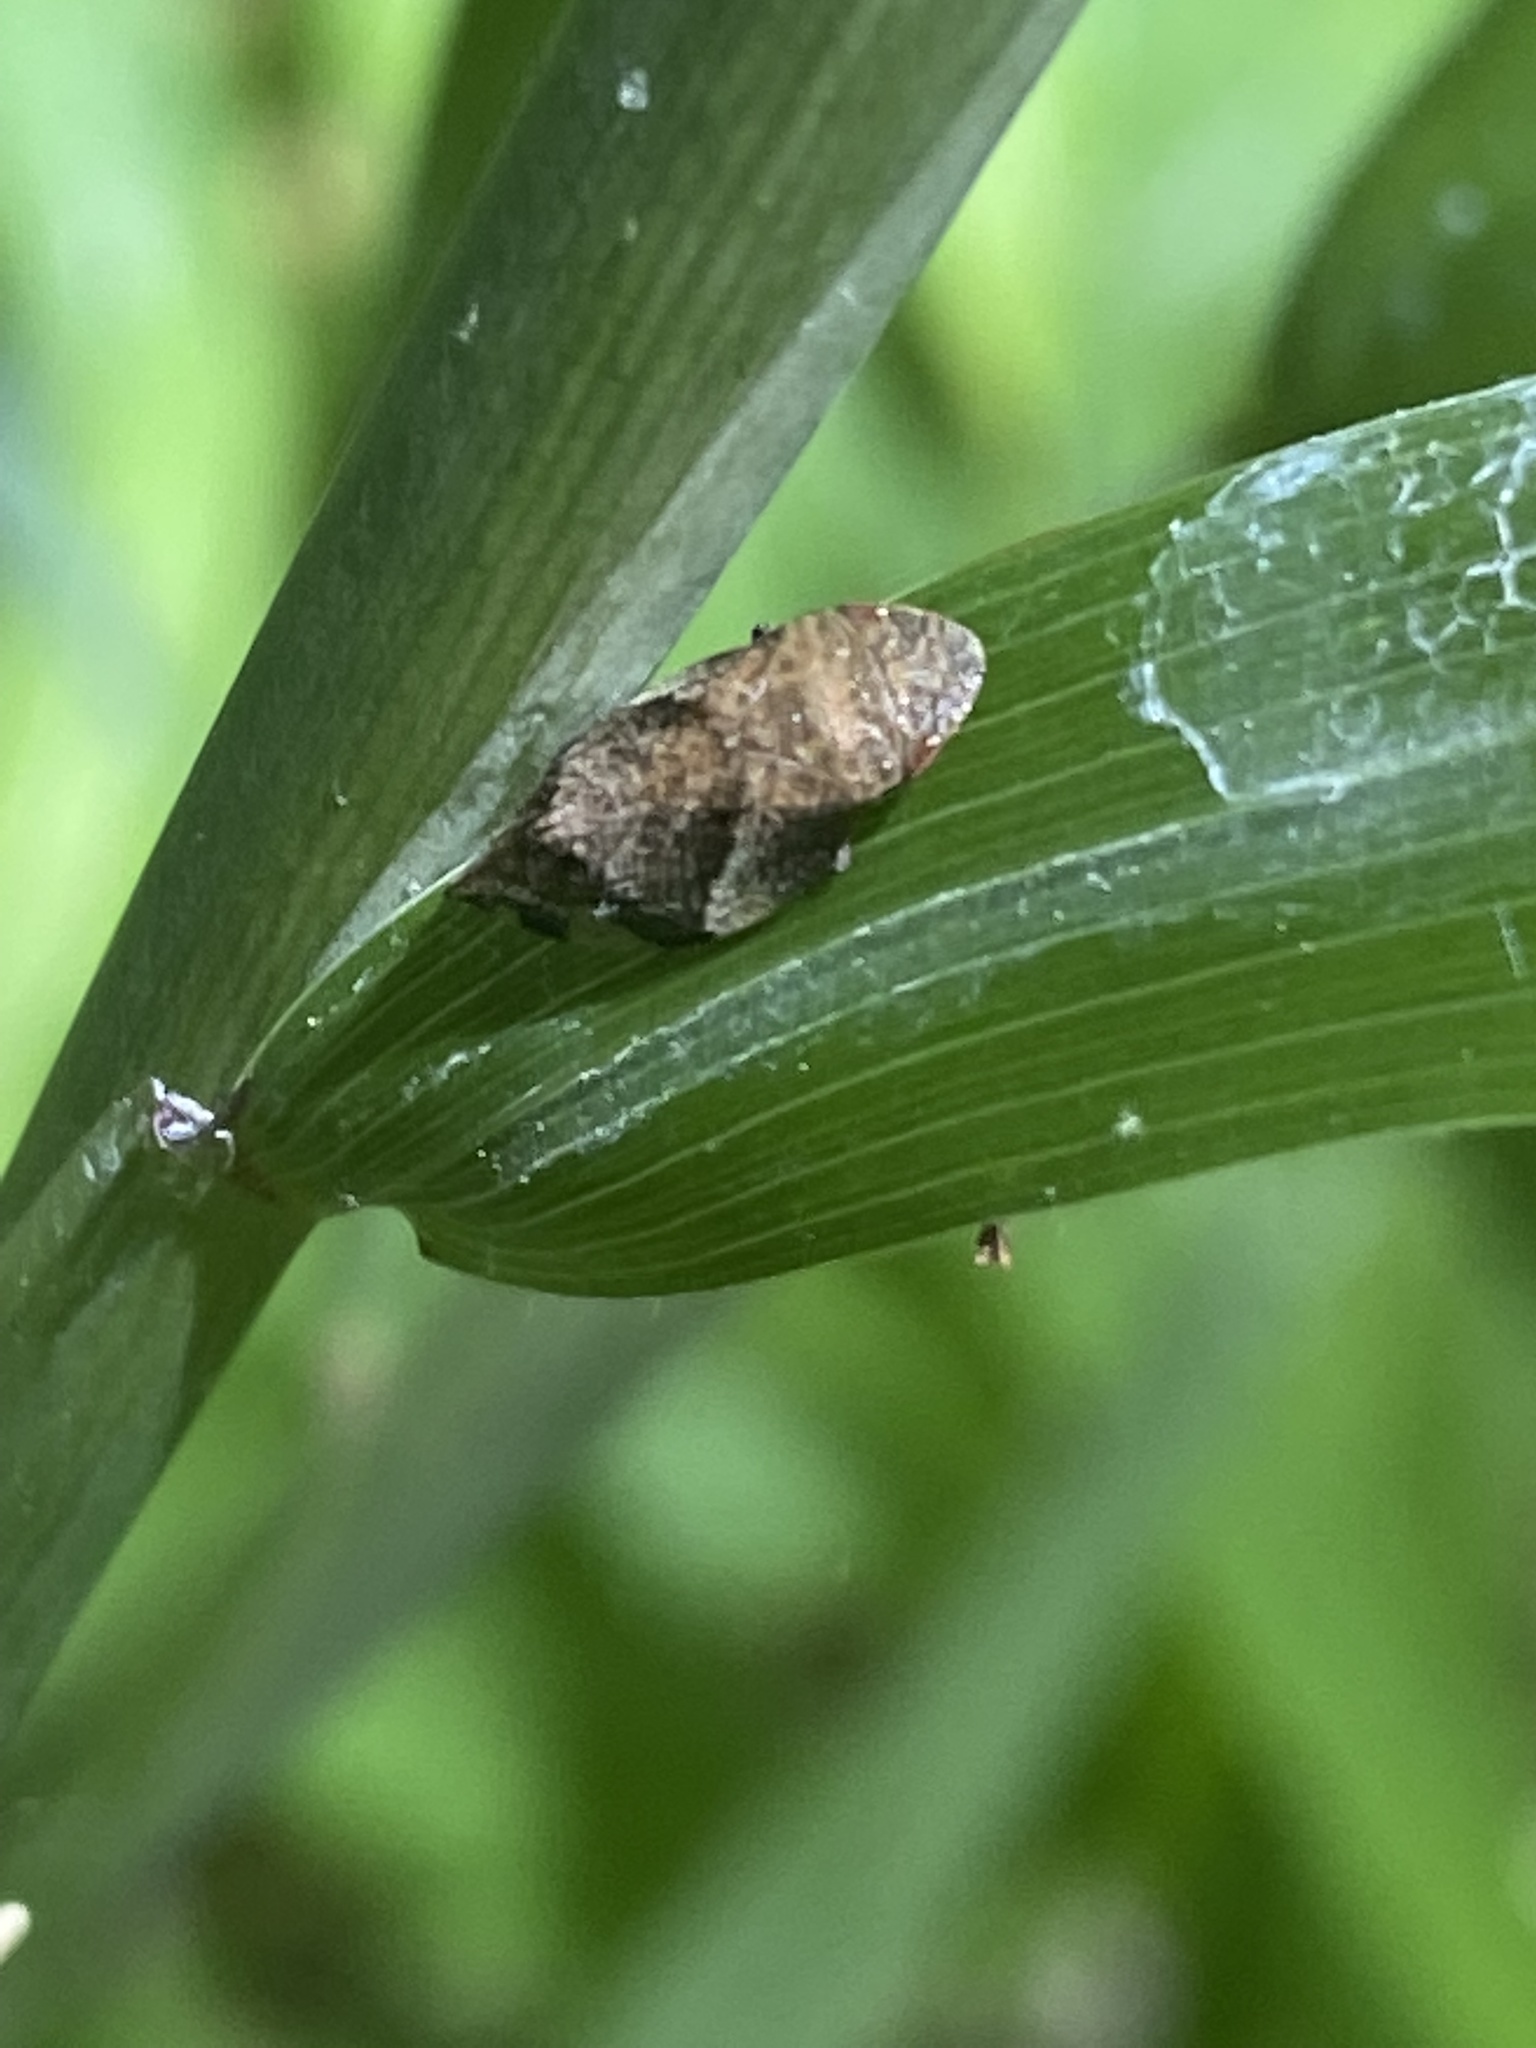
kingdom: Animalia
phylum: Arthropoda
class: Insecta
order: Hemiptera
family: Aphrophoridae
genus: Lepyronia
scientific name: Lepyronia quadrangularis
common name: Diamond-backed spittlebug
